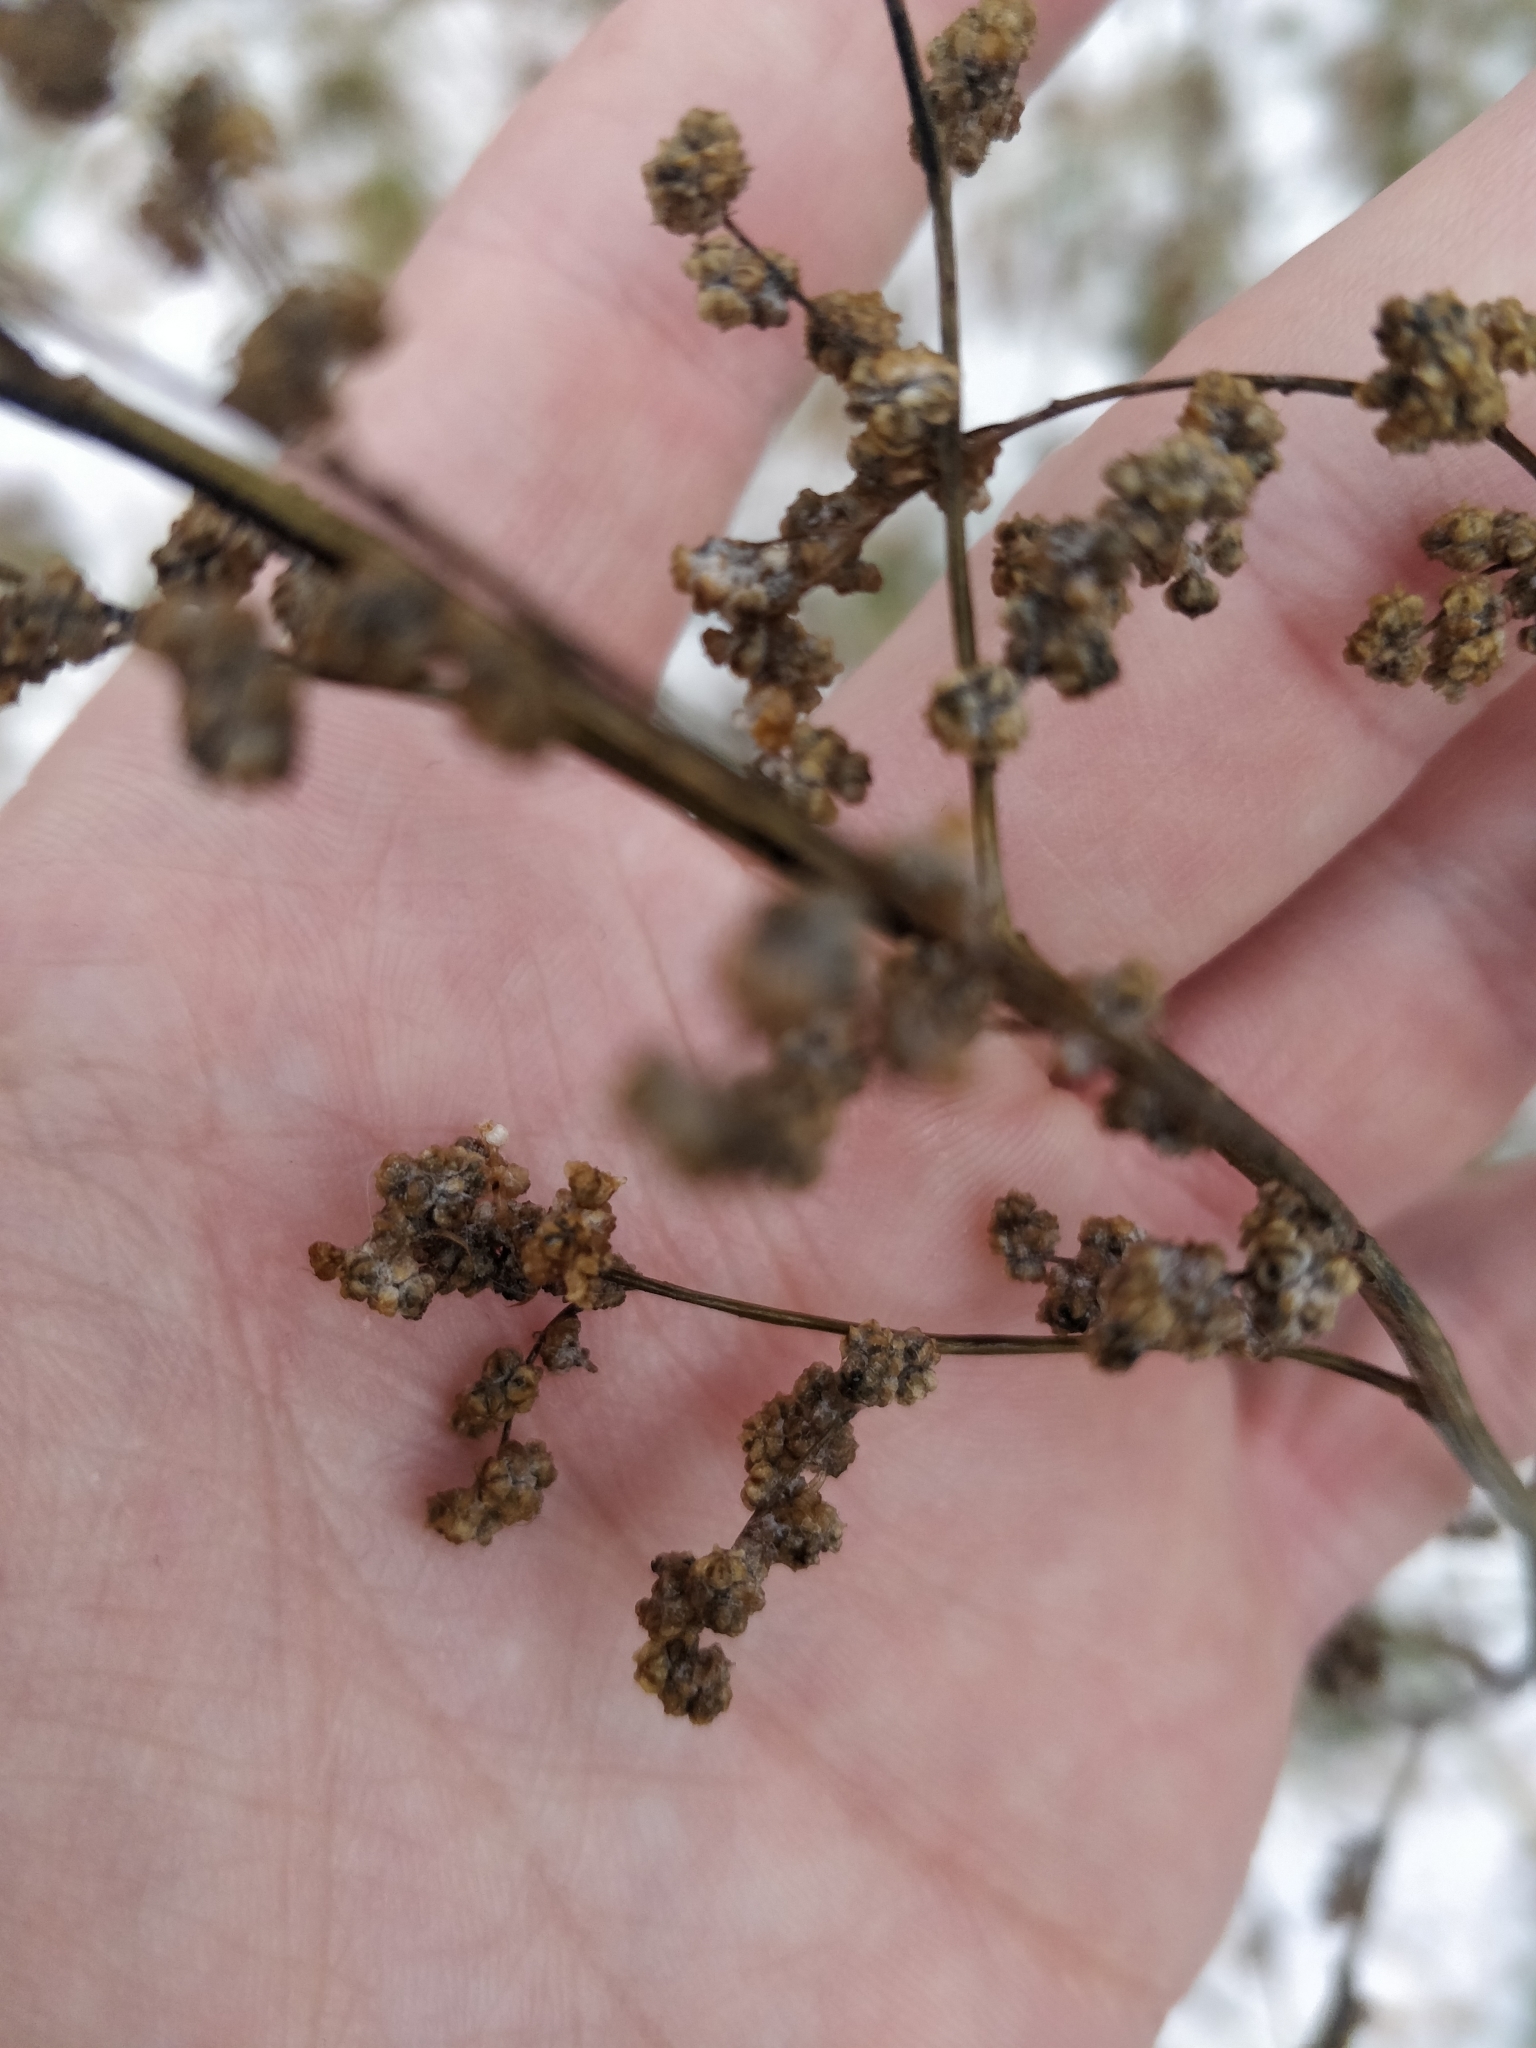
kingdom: Plantae
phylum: Tracheophyta
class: Magnoliopsida
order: Caryophyllales
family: Amaranthaceae
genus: Chenopodium
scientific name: Chenopodium album
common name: Fat-hen
